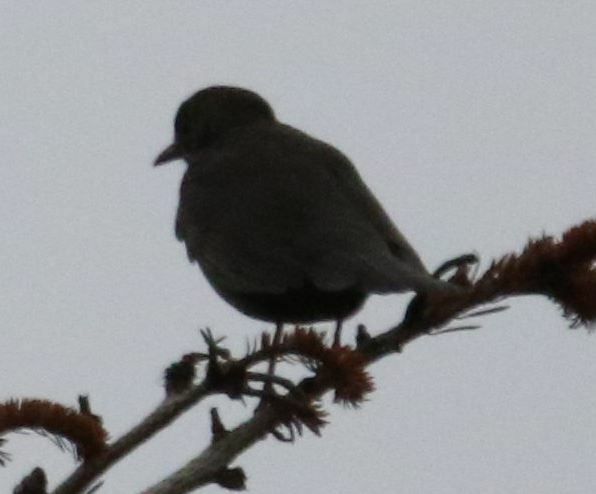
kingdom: Animalia
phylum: Chordata
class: Aves
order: Passeriformes
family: Turdidae
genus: Turdus
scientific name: Turdus merula
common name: Common blackbird
